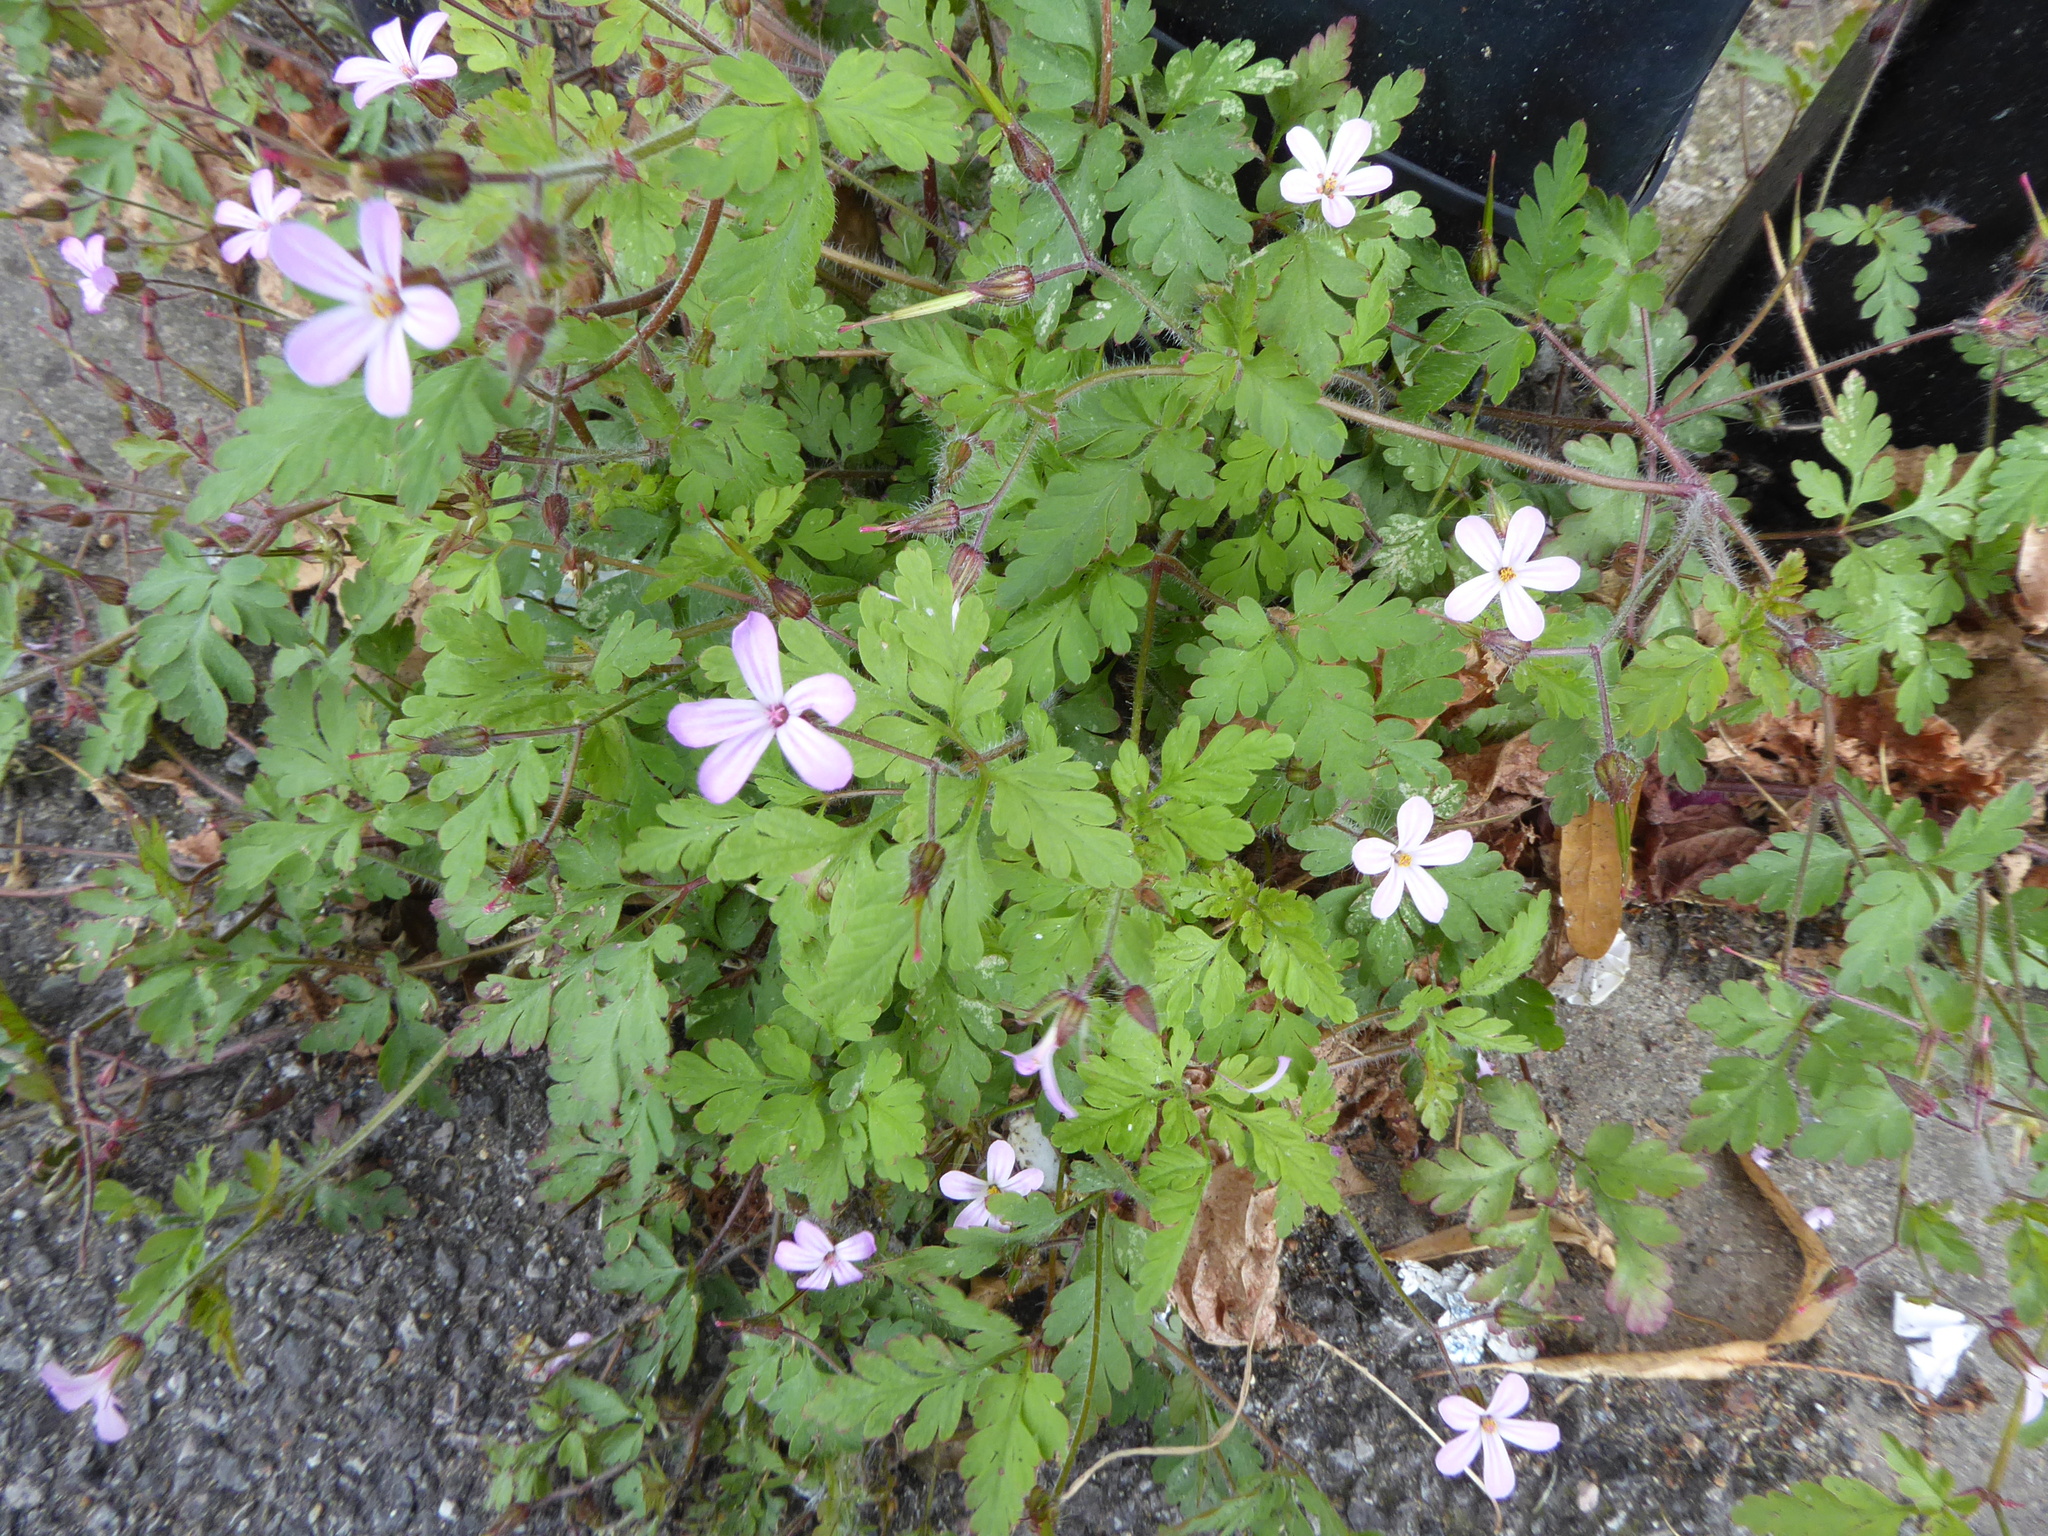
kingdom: Plantae
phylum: Tracheophyta
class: Magnoliopsida
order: Geraniales
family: Geraniaceae
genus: Geranium
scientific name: Geranium robertianum
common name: Herb-robert
